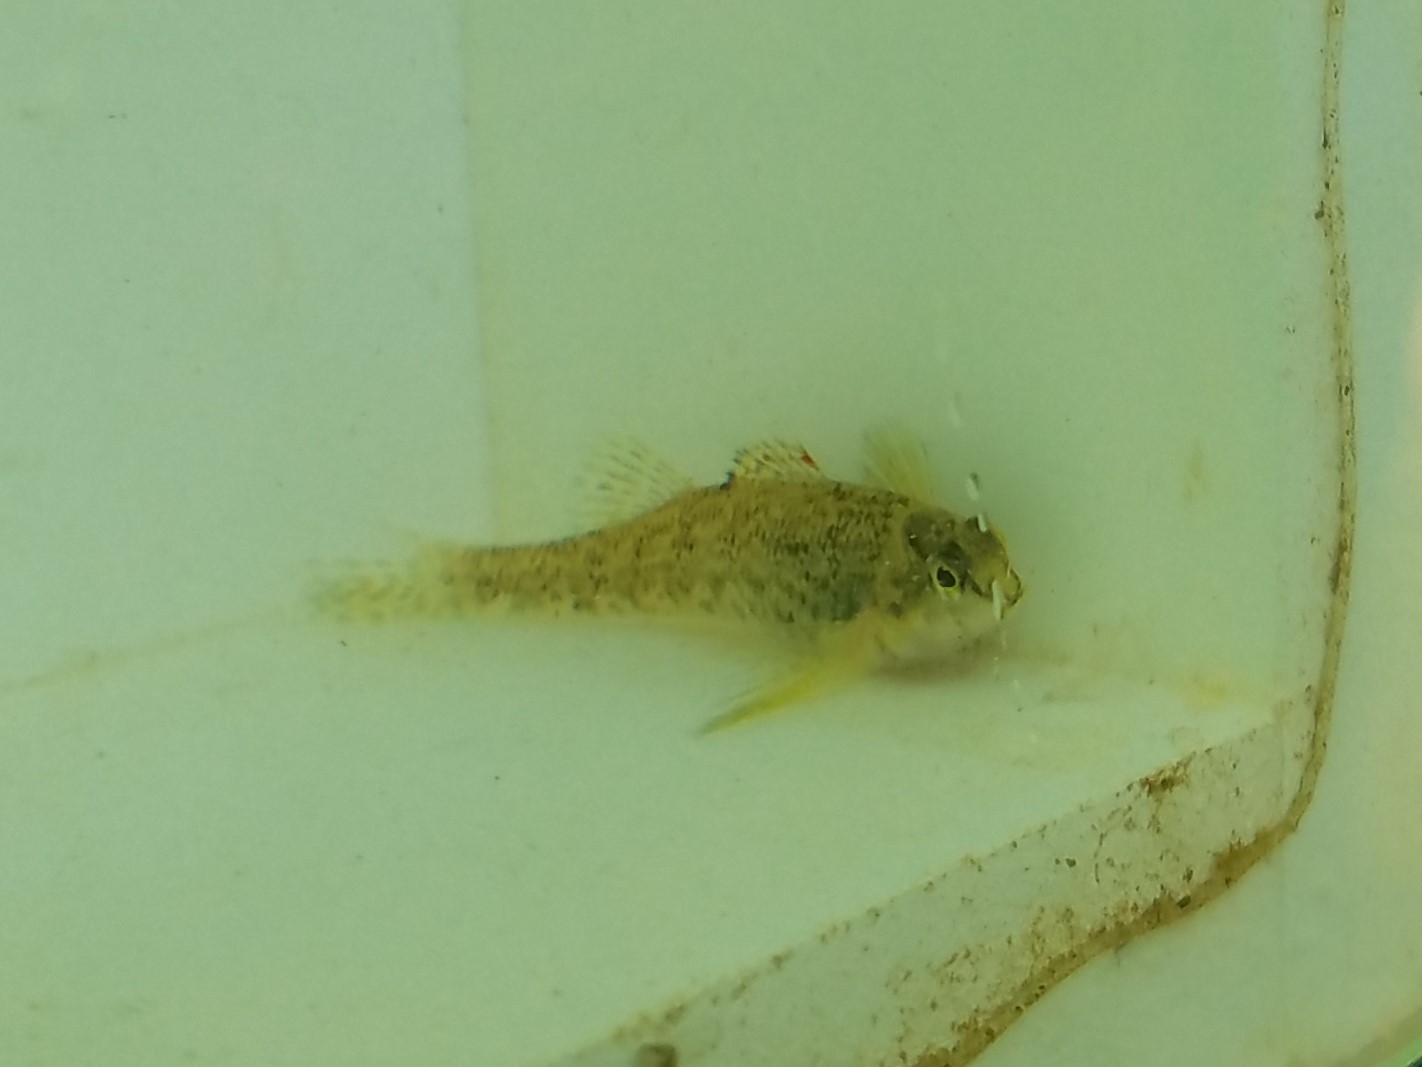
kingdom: Animalia
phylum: Chordata
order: Perciformes
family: Percidae
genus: Etheostoma
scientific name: Etheostoma coosae
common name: Coosa darter
